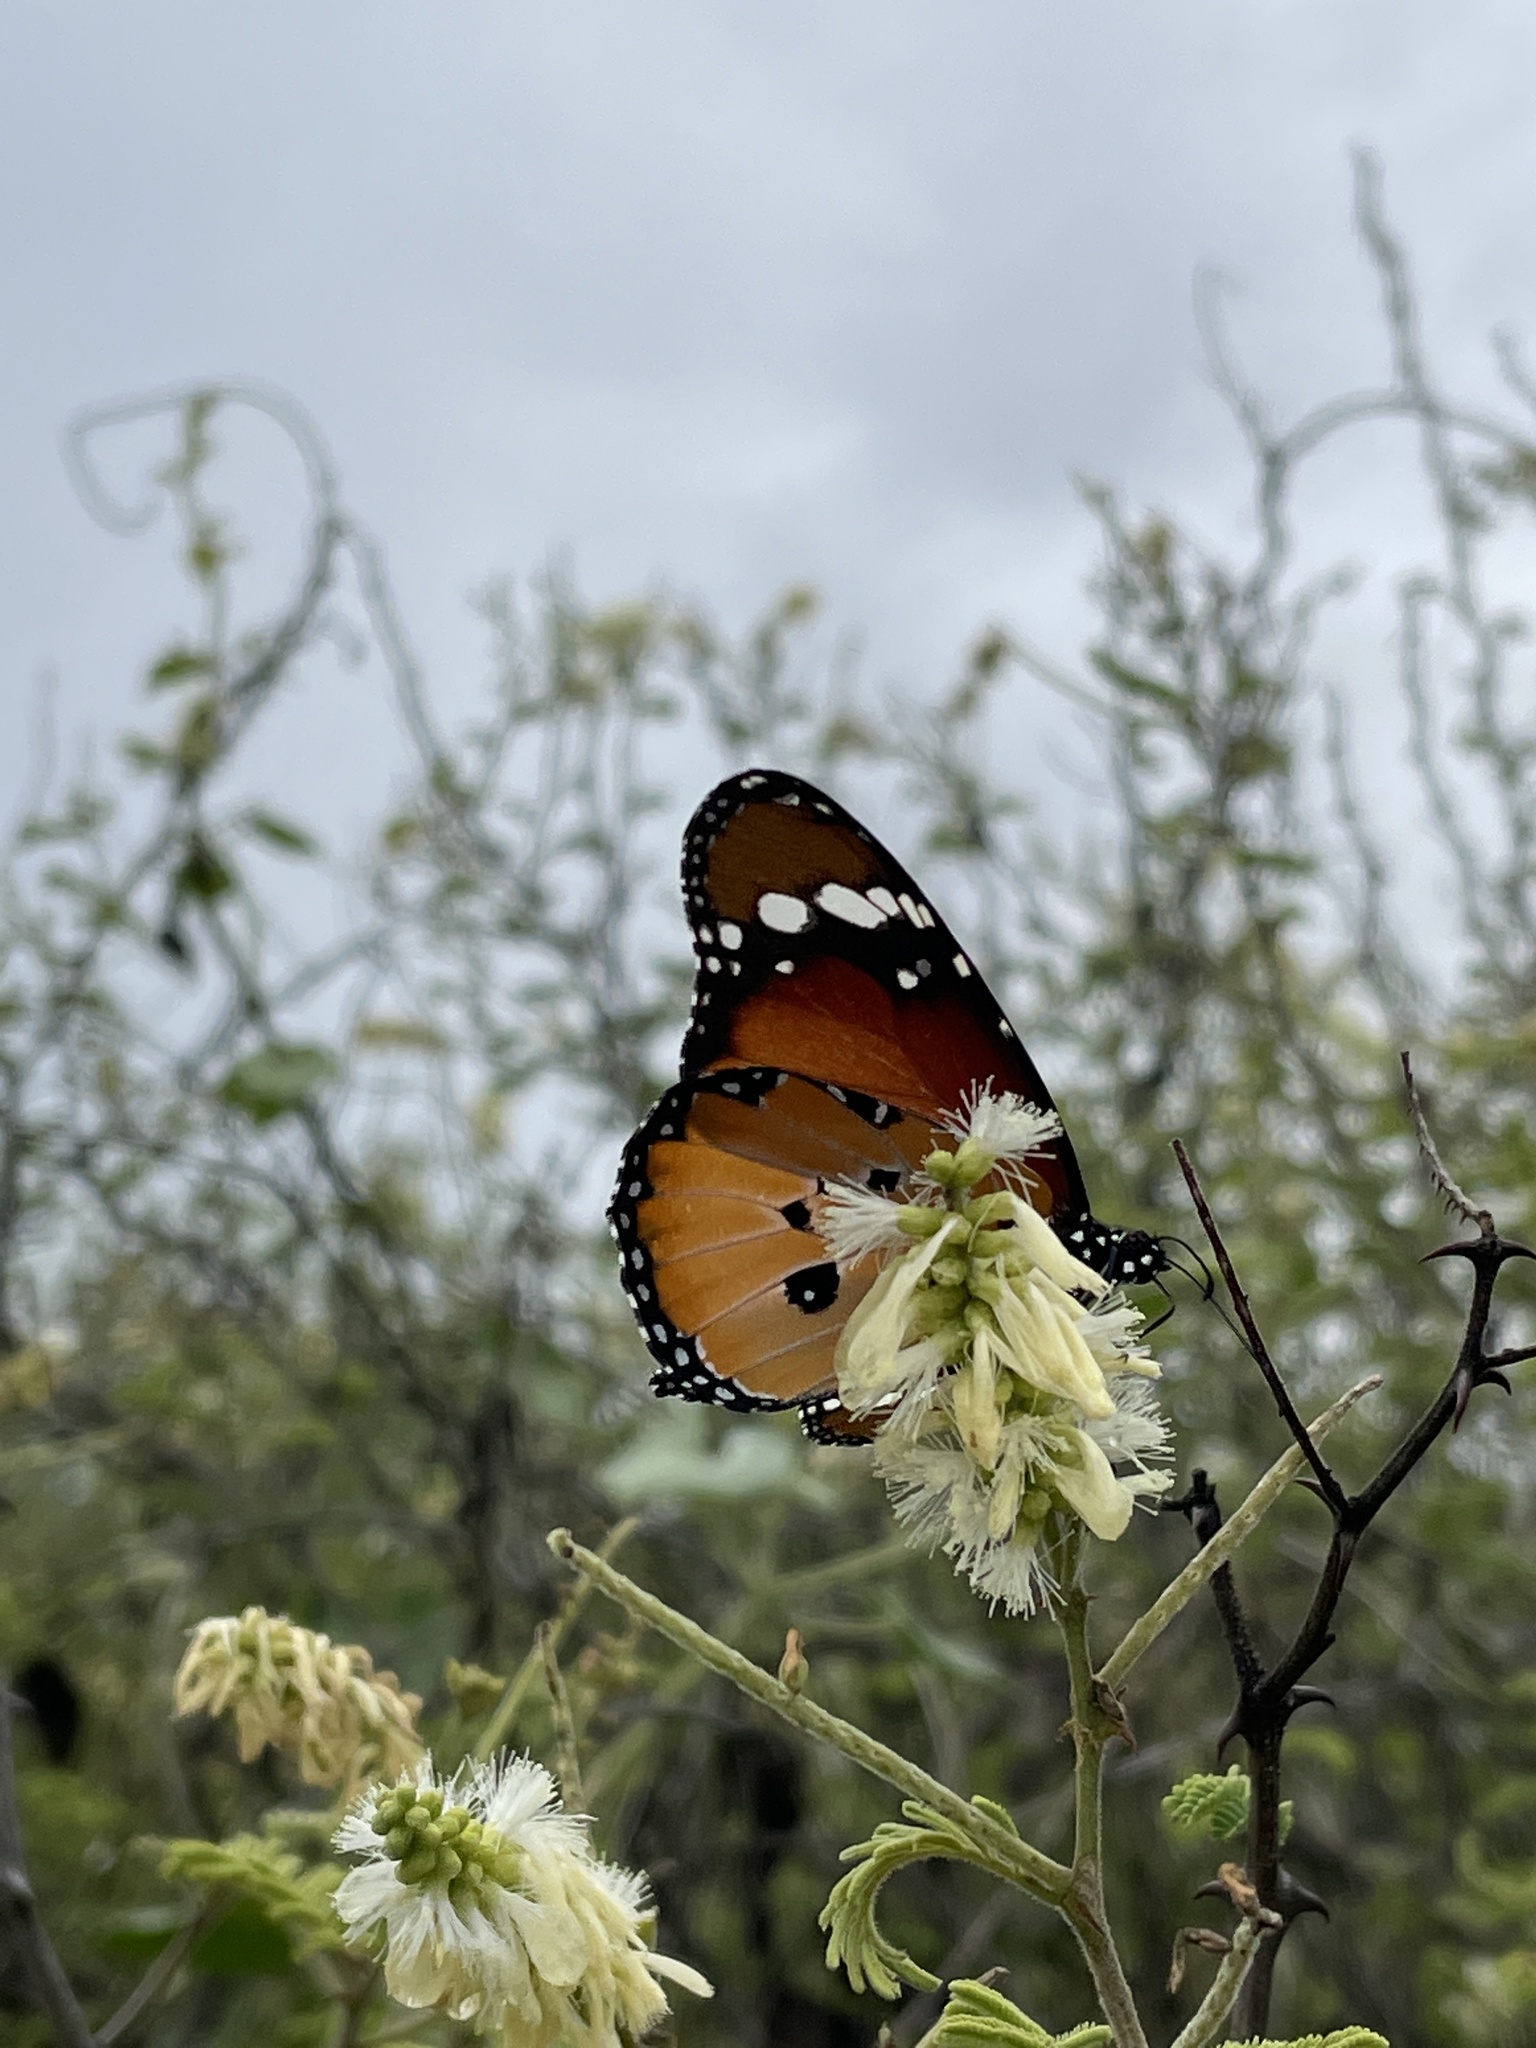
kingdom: Animalia
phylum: Arthropoda
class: Insecta
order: Lepidoptera
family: Nymphalidae
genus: Danaus
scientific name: Danaus chrysippus
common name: Plain tiger
